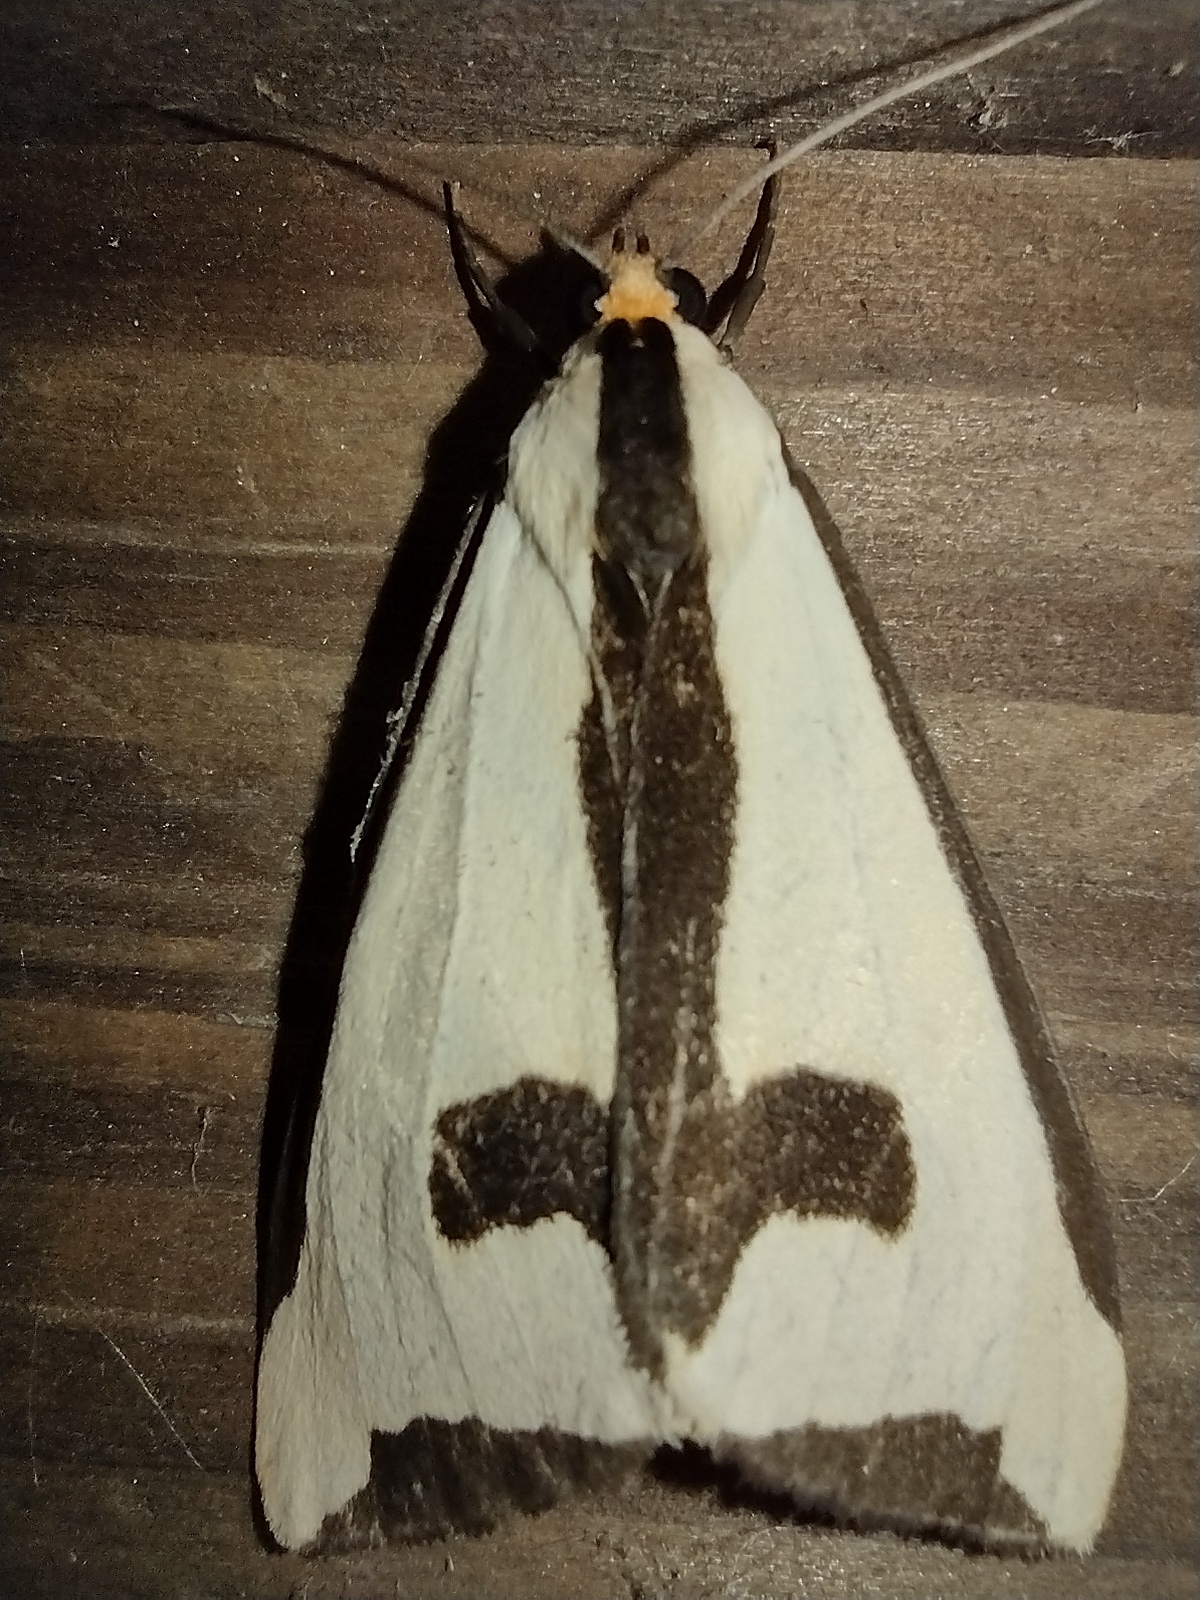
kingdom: Animalia
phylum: Arthropoda
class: Insecta
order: Lepidoptera
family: Erebidae
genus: Haploa
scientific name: Haploa clymene
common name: Clymene moth
